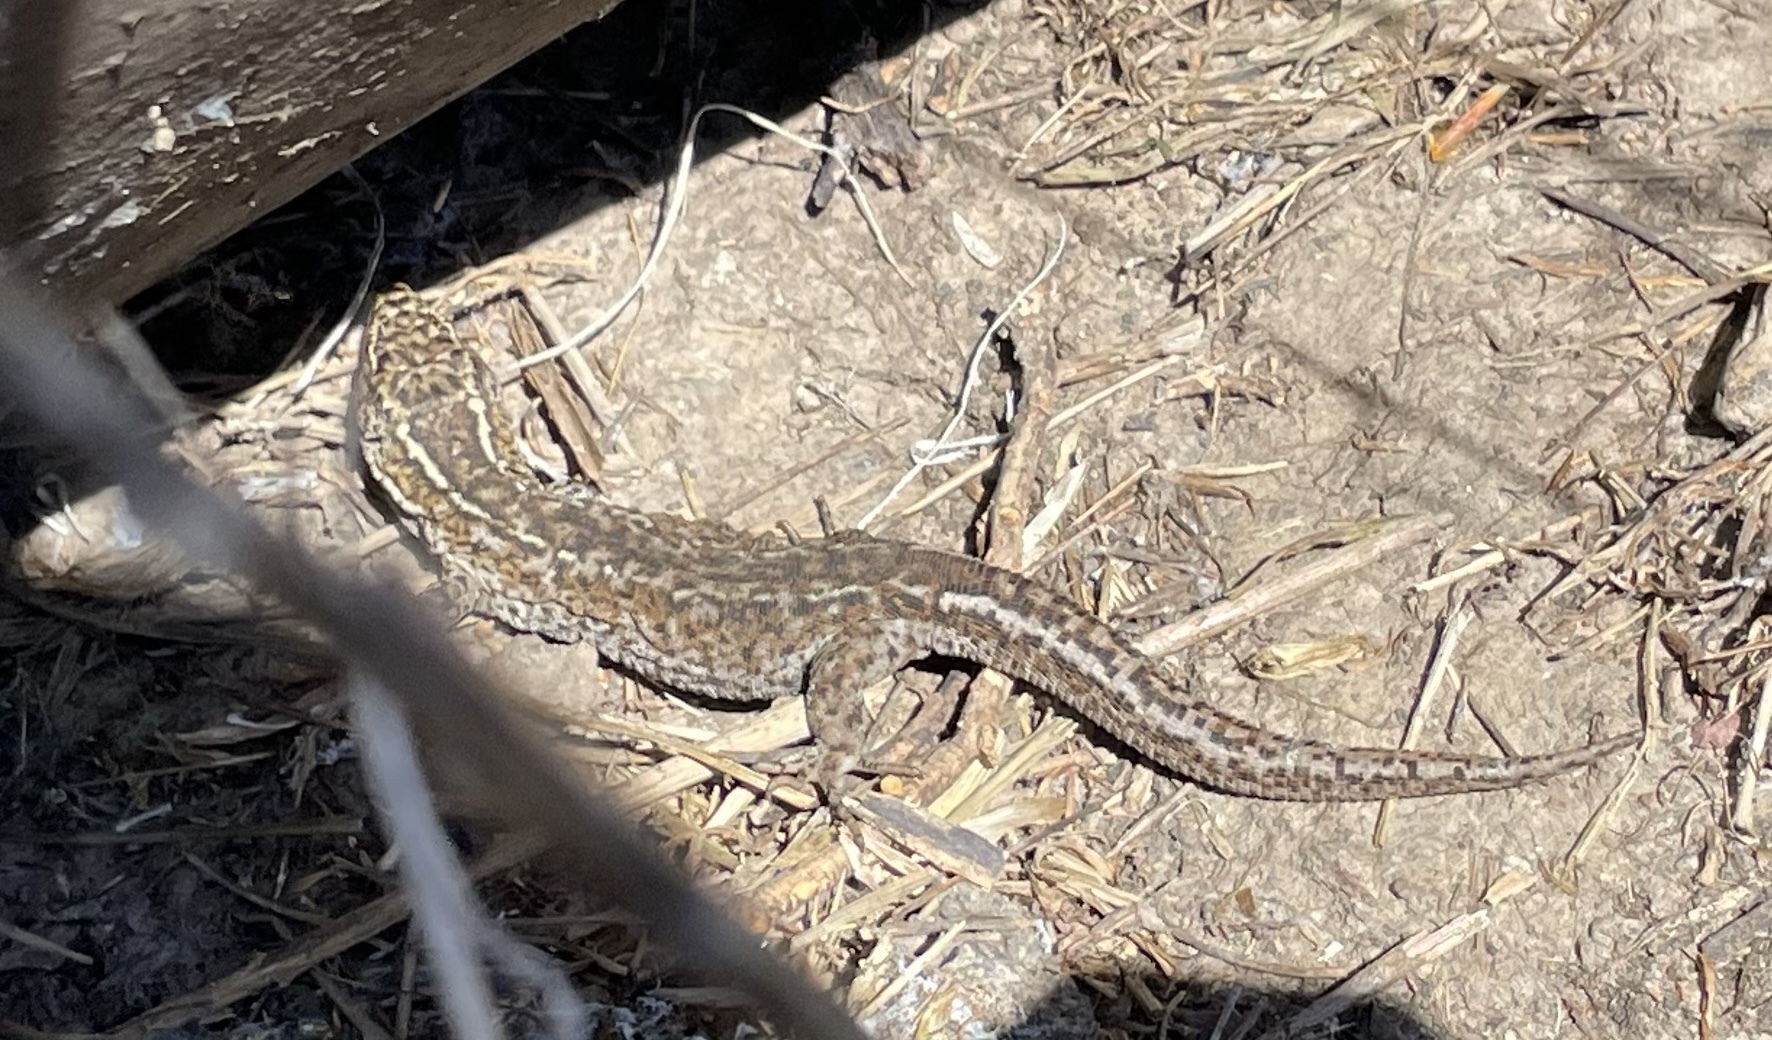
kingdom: Animalia
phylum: Chordata
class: Squamata
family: Xantusiidae
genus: Xantusia
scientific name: Xantusia riversiana
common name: Island night lizard
